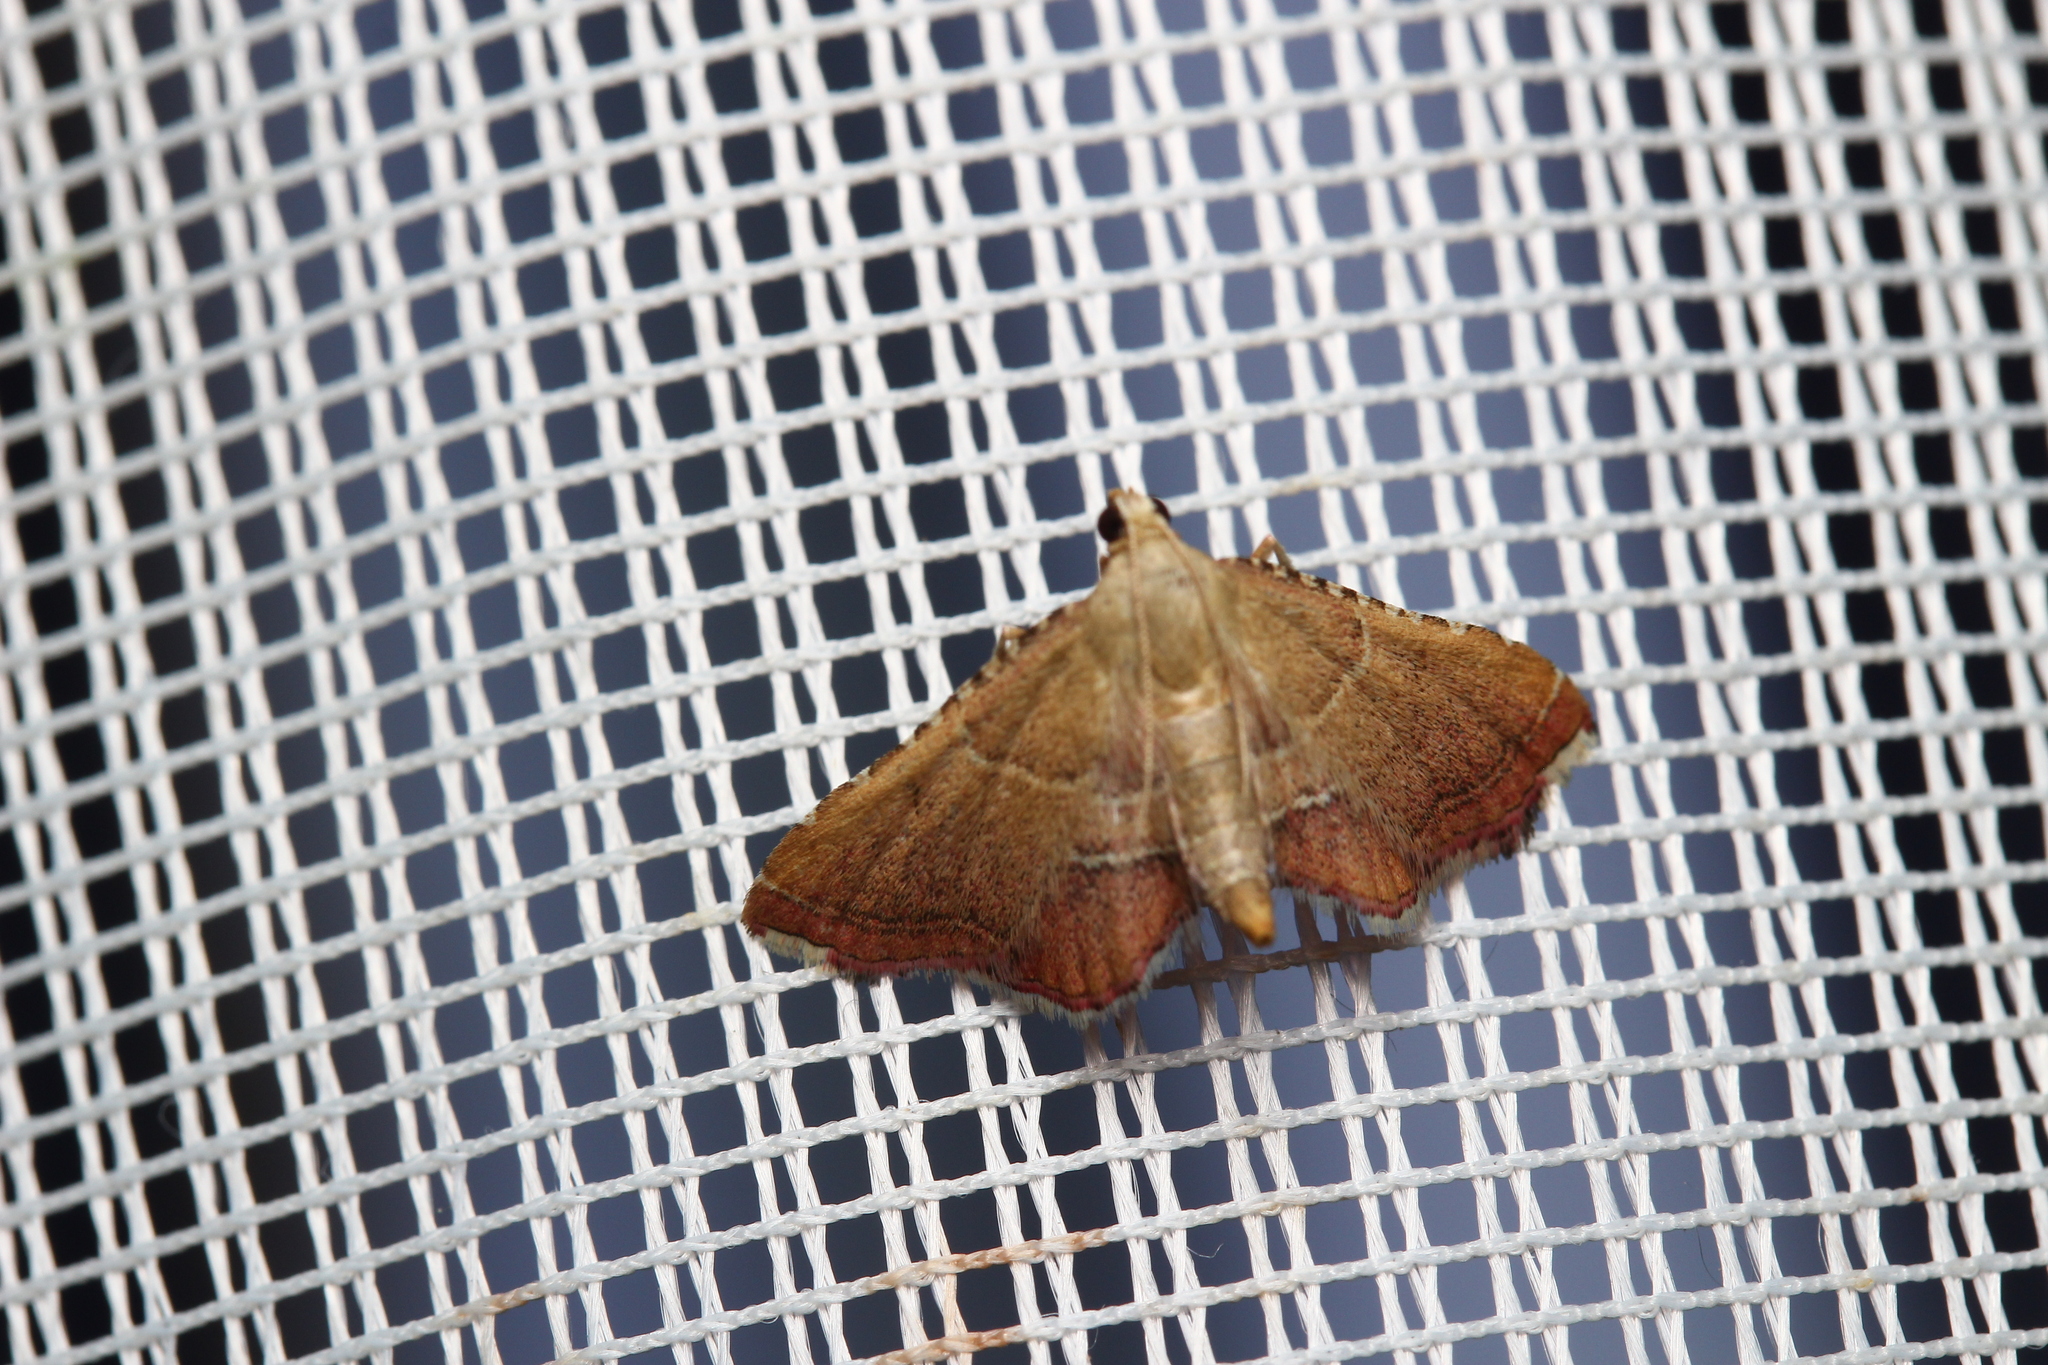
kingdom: Animalia
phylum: Arthropoda
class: Insecta
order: Lepidoptera
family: Pyralidae
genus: Endotricha
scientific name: Endotricha flammealis
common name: Rosy tabby
